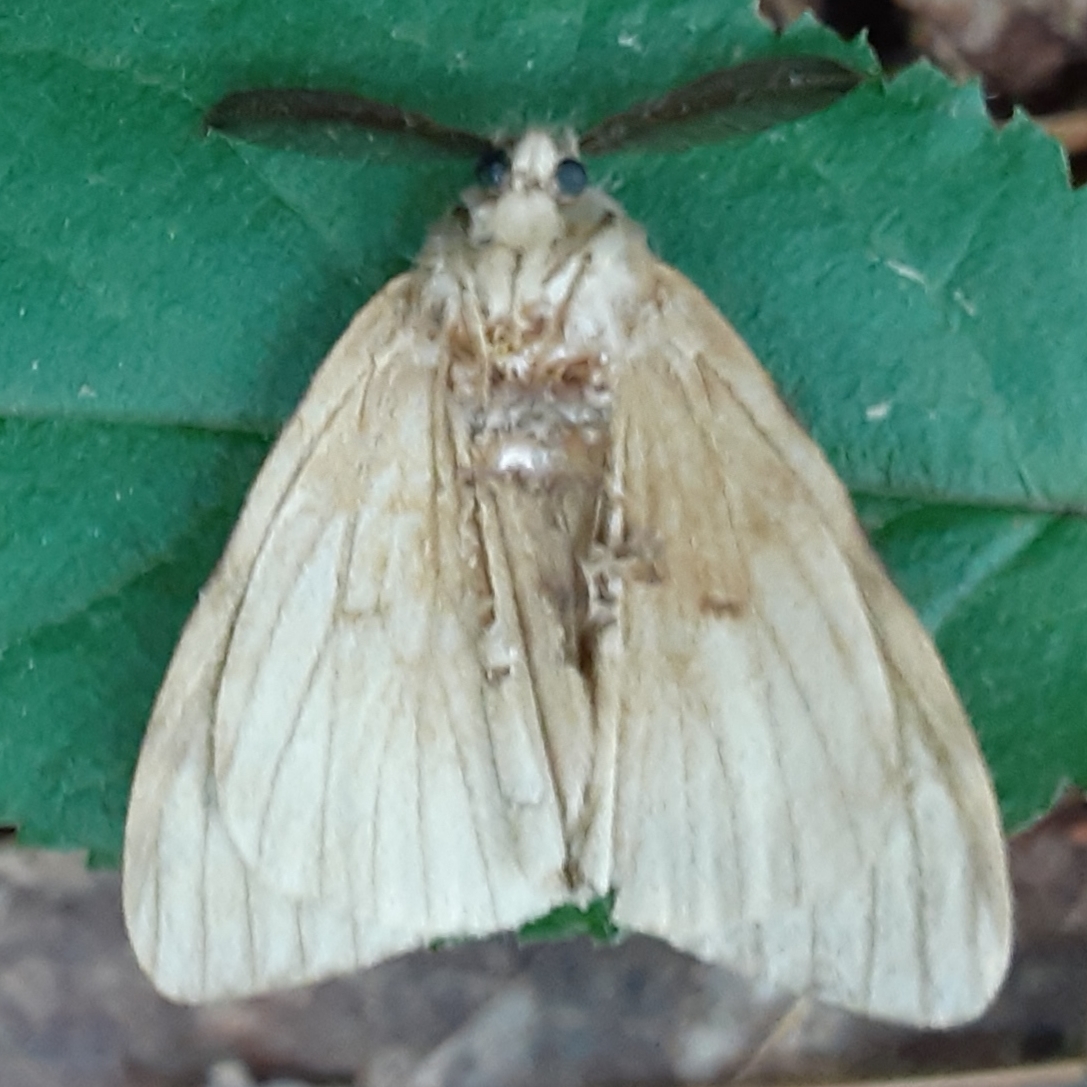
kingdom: Animalia
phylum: Arthropoda
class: Insecta
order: Lepidoptera
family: Erebidae
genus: Lymantria
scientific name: Lymantria dispar
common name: Gypsy moth
